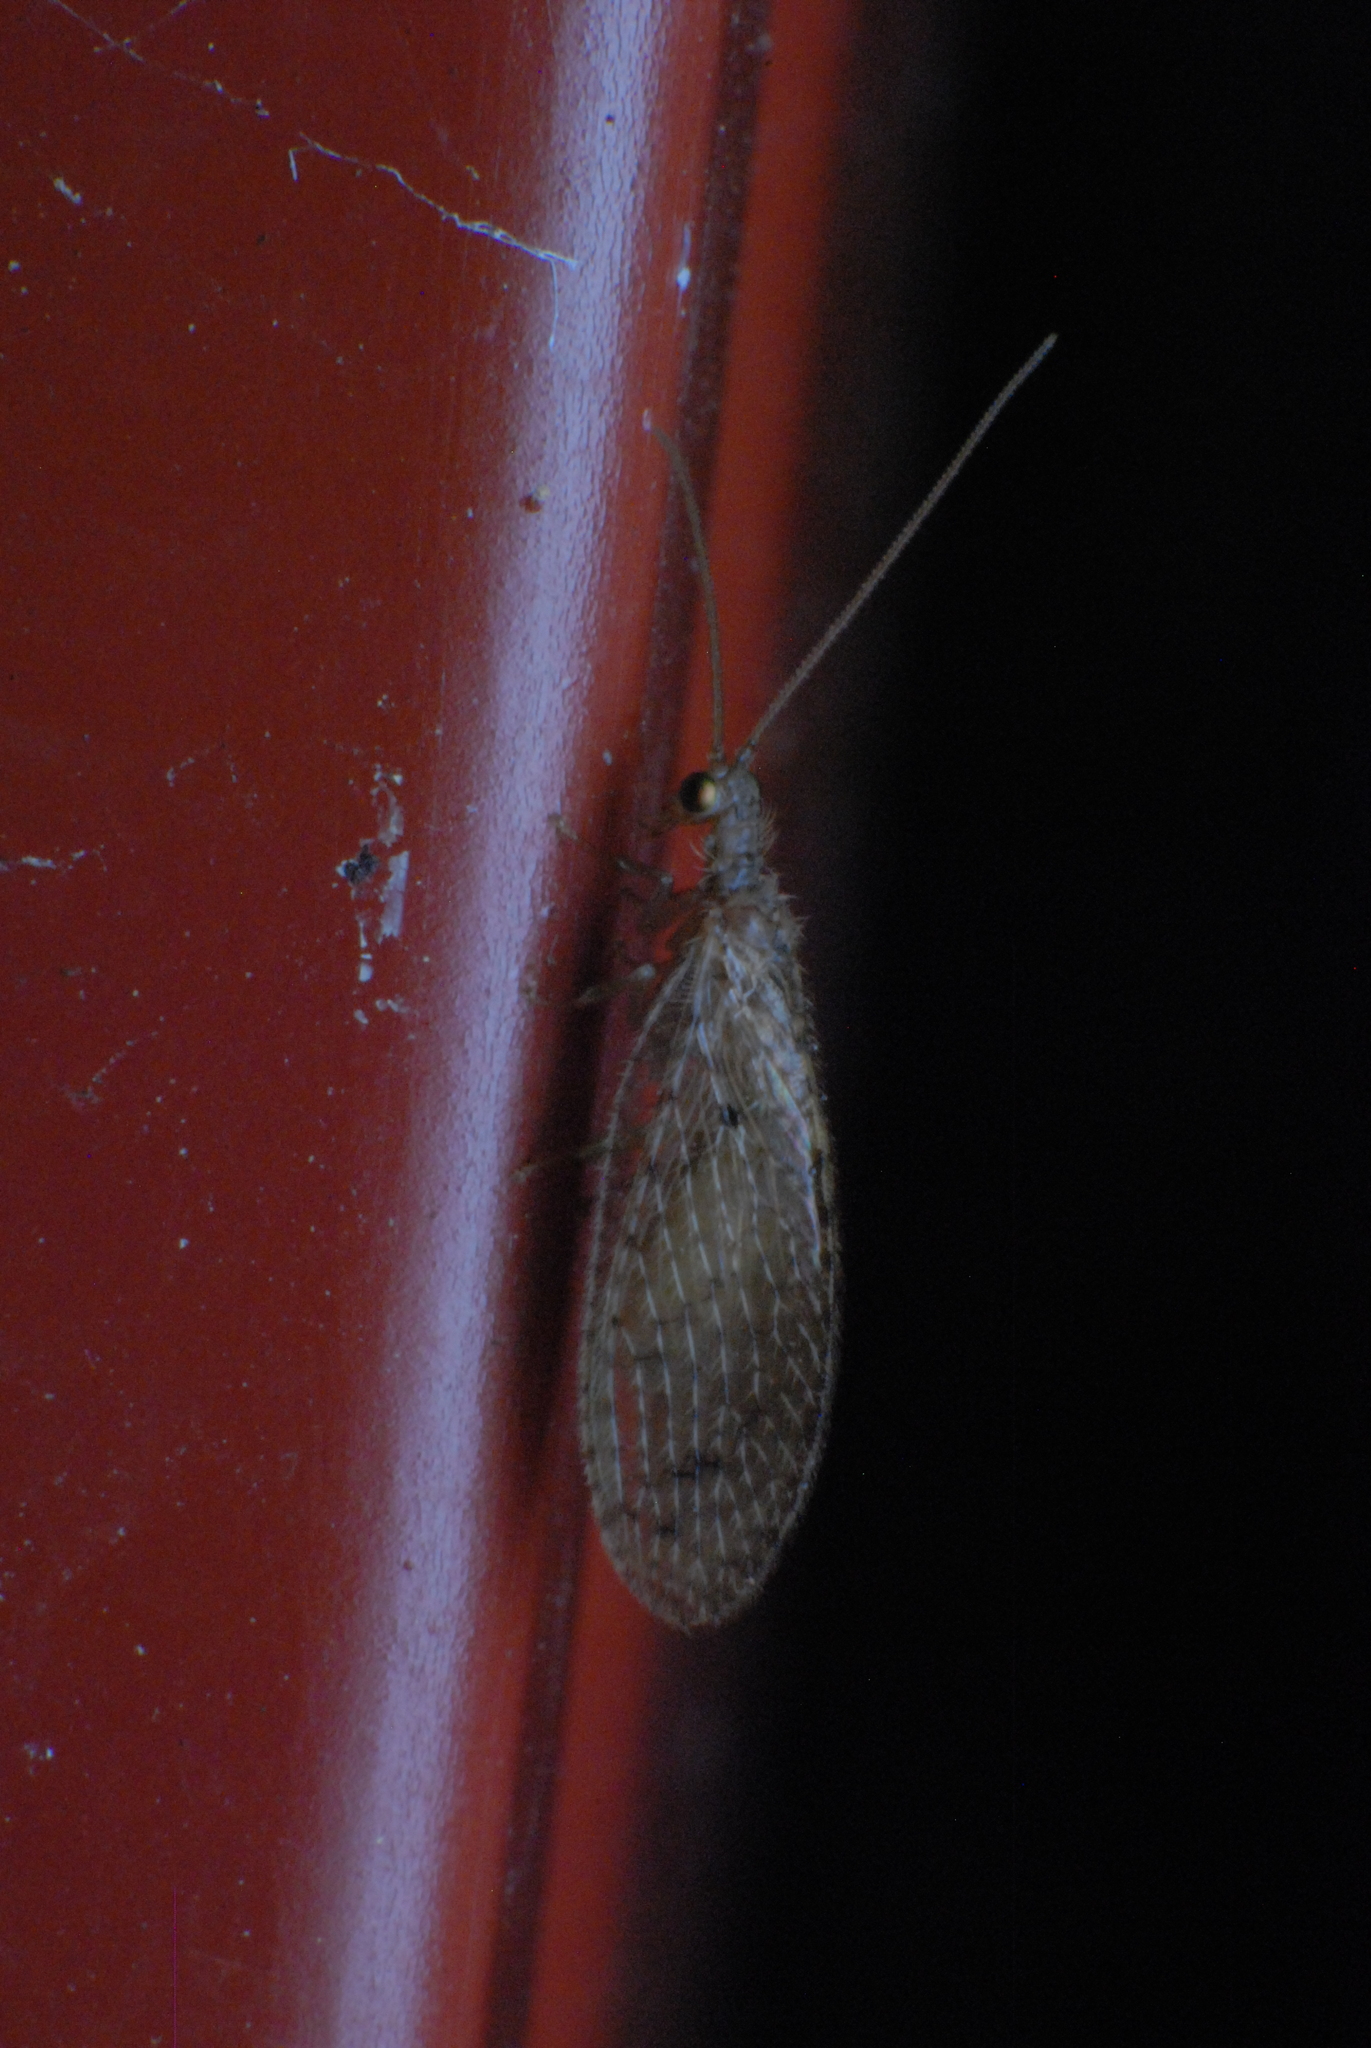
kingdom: Animalia
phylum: Arthropoda
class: Insecta
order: Neuroptera
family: Hemerobiidae
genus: Micromus
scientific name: Micromus tasmaniae
